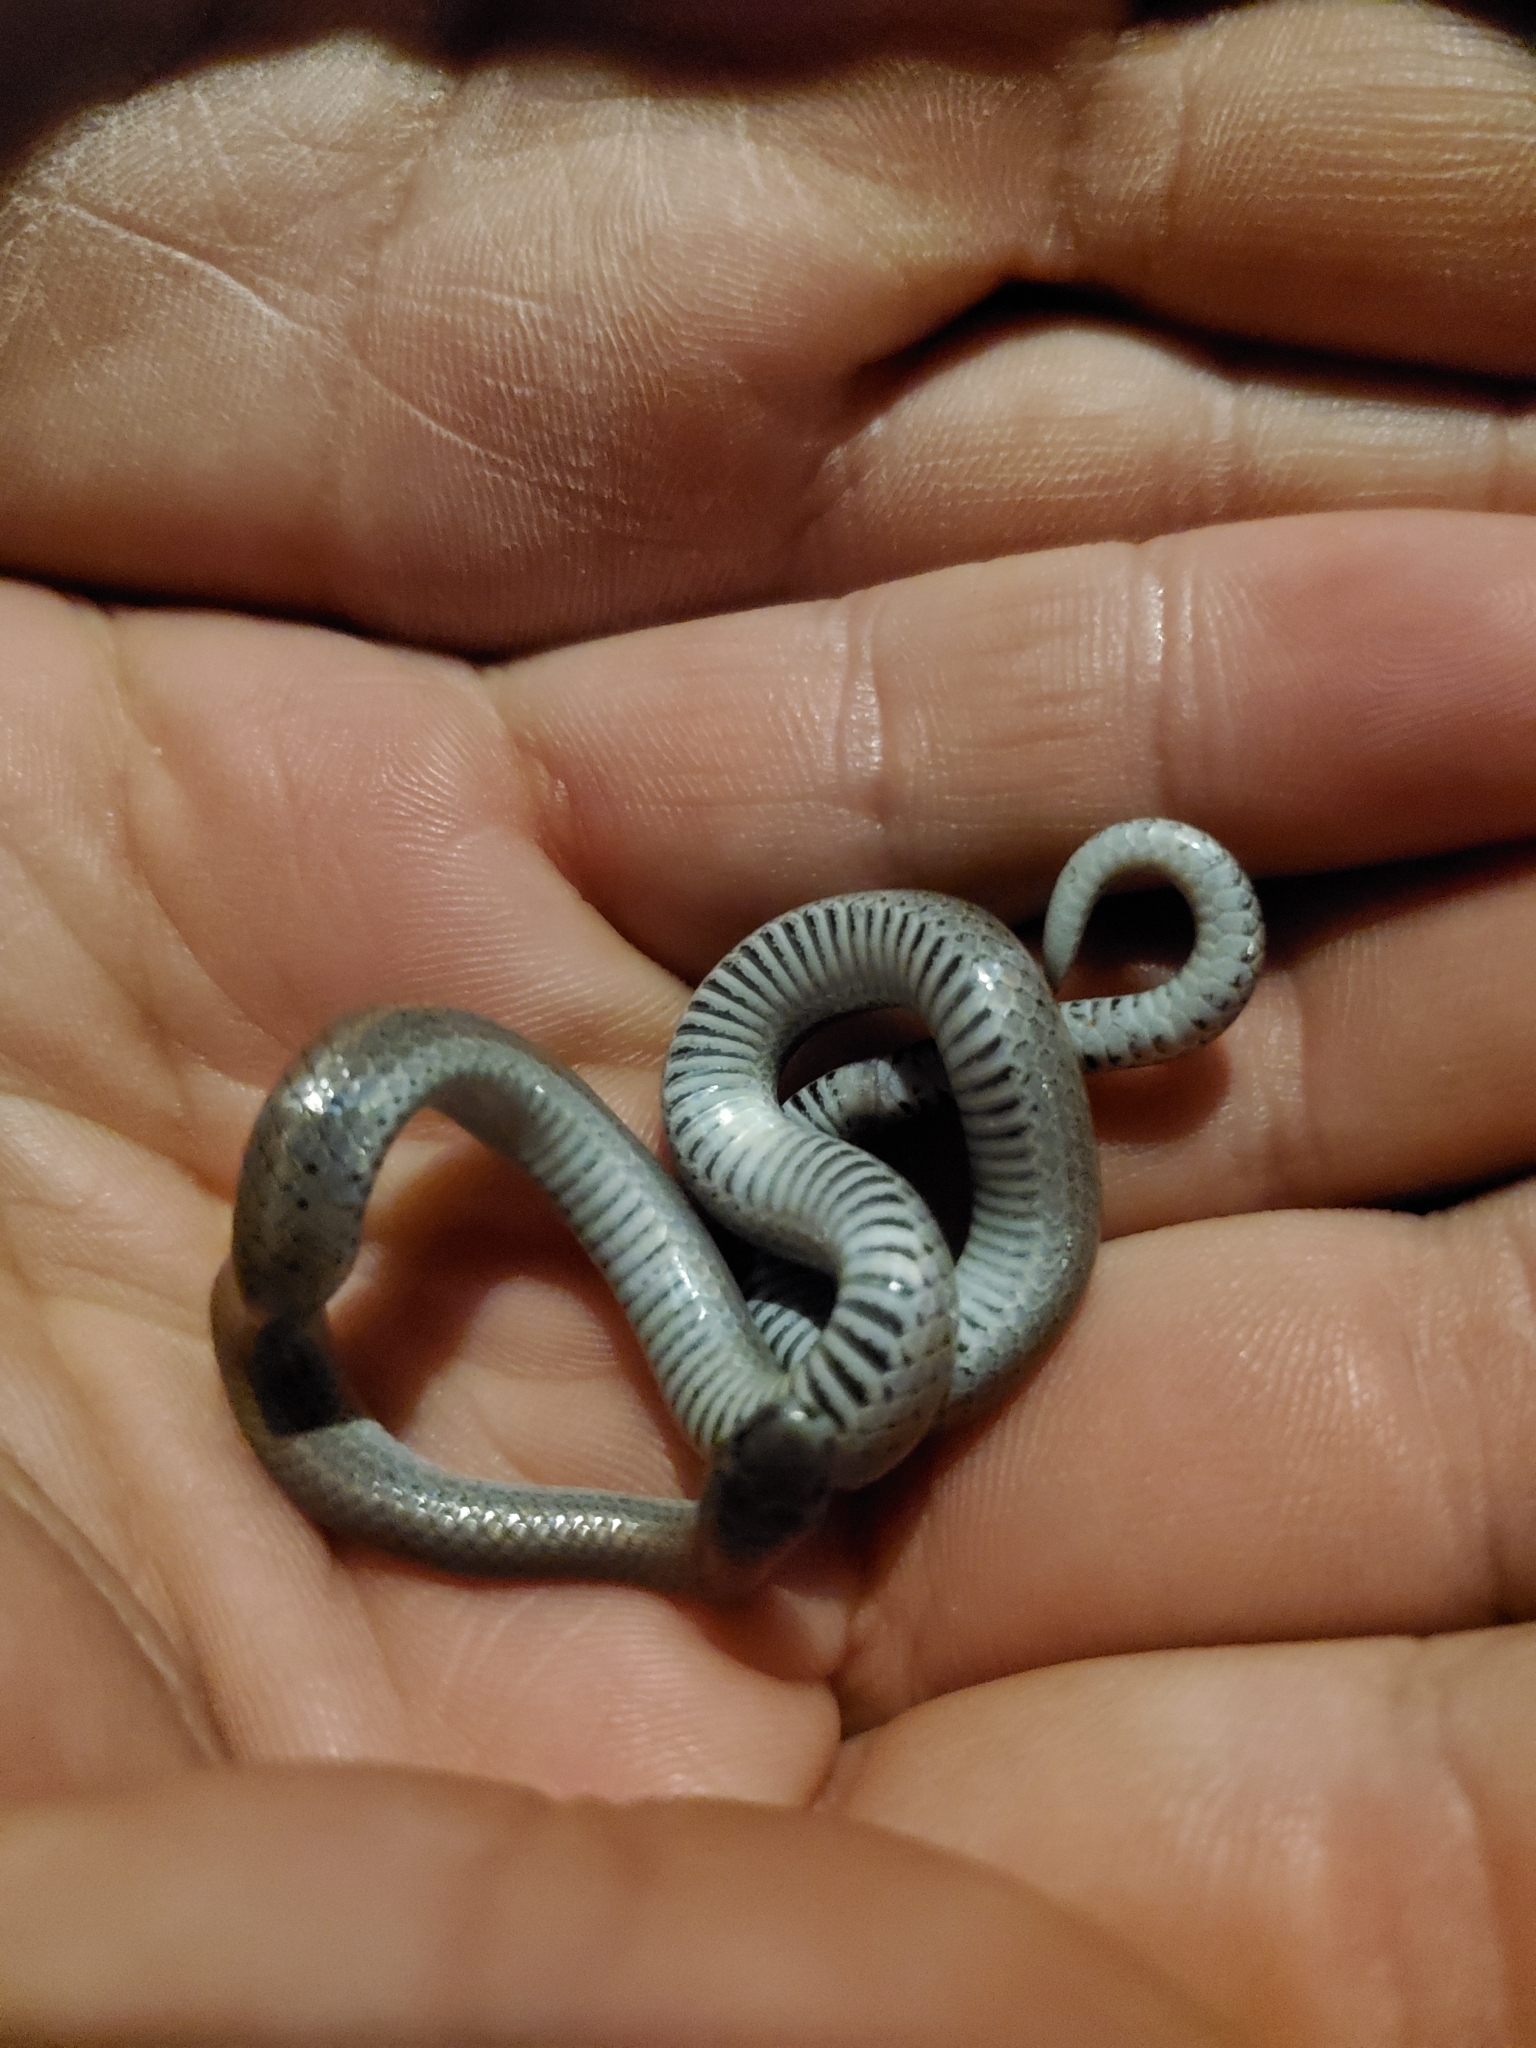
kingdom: Animalia
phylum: Chordata
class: Squamata
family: Colubridae
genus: Contia
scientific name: Contia tenuis
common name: Sharptail snake
